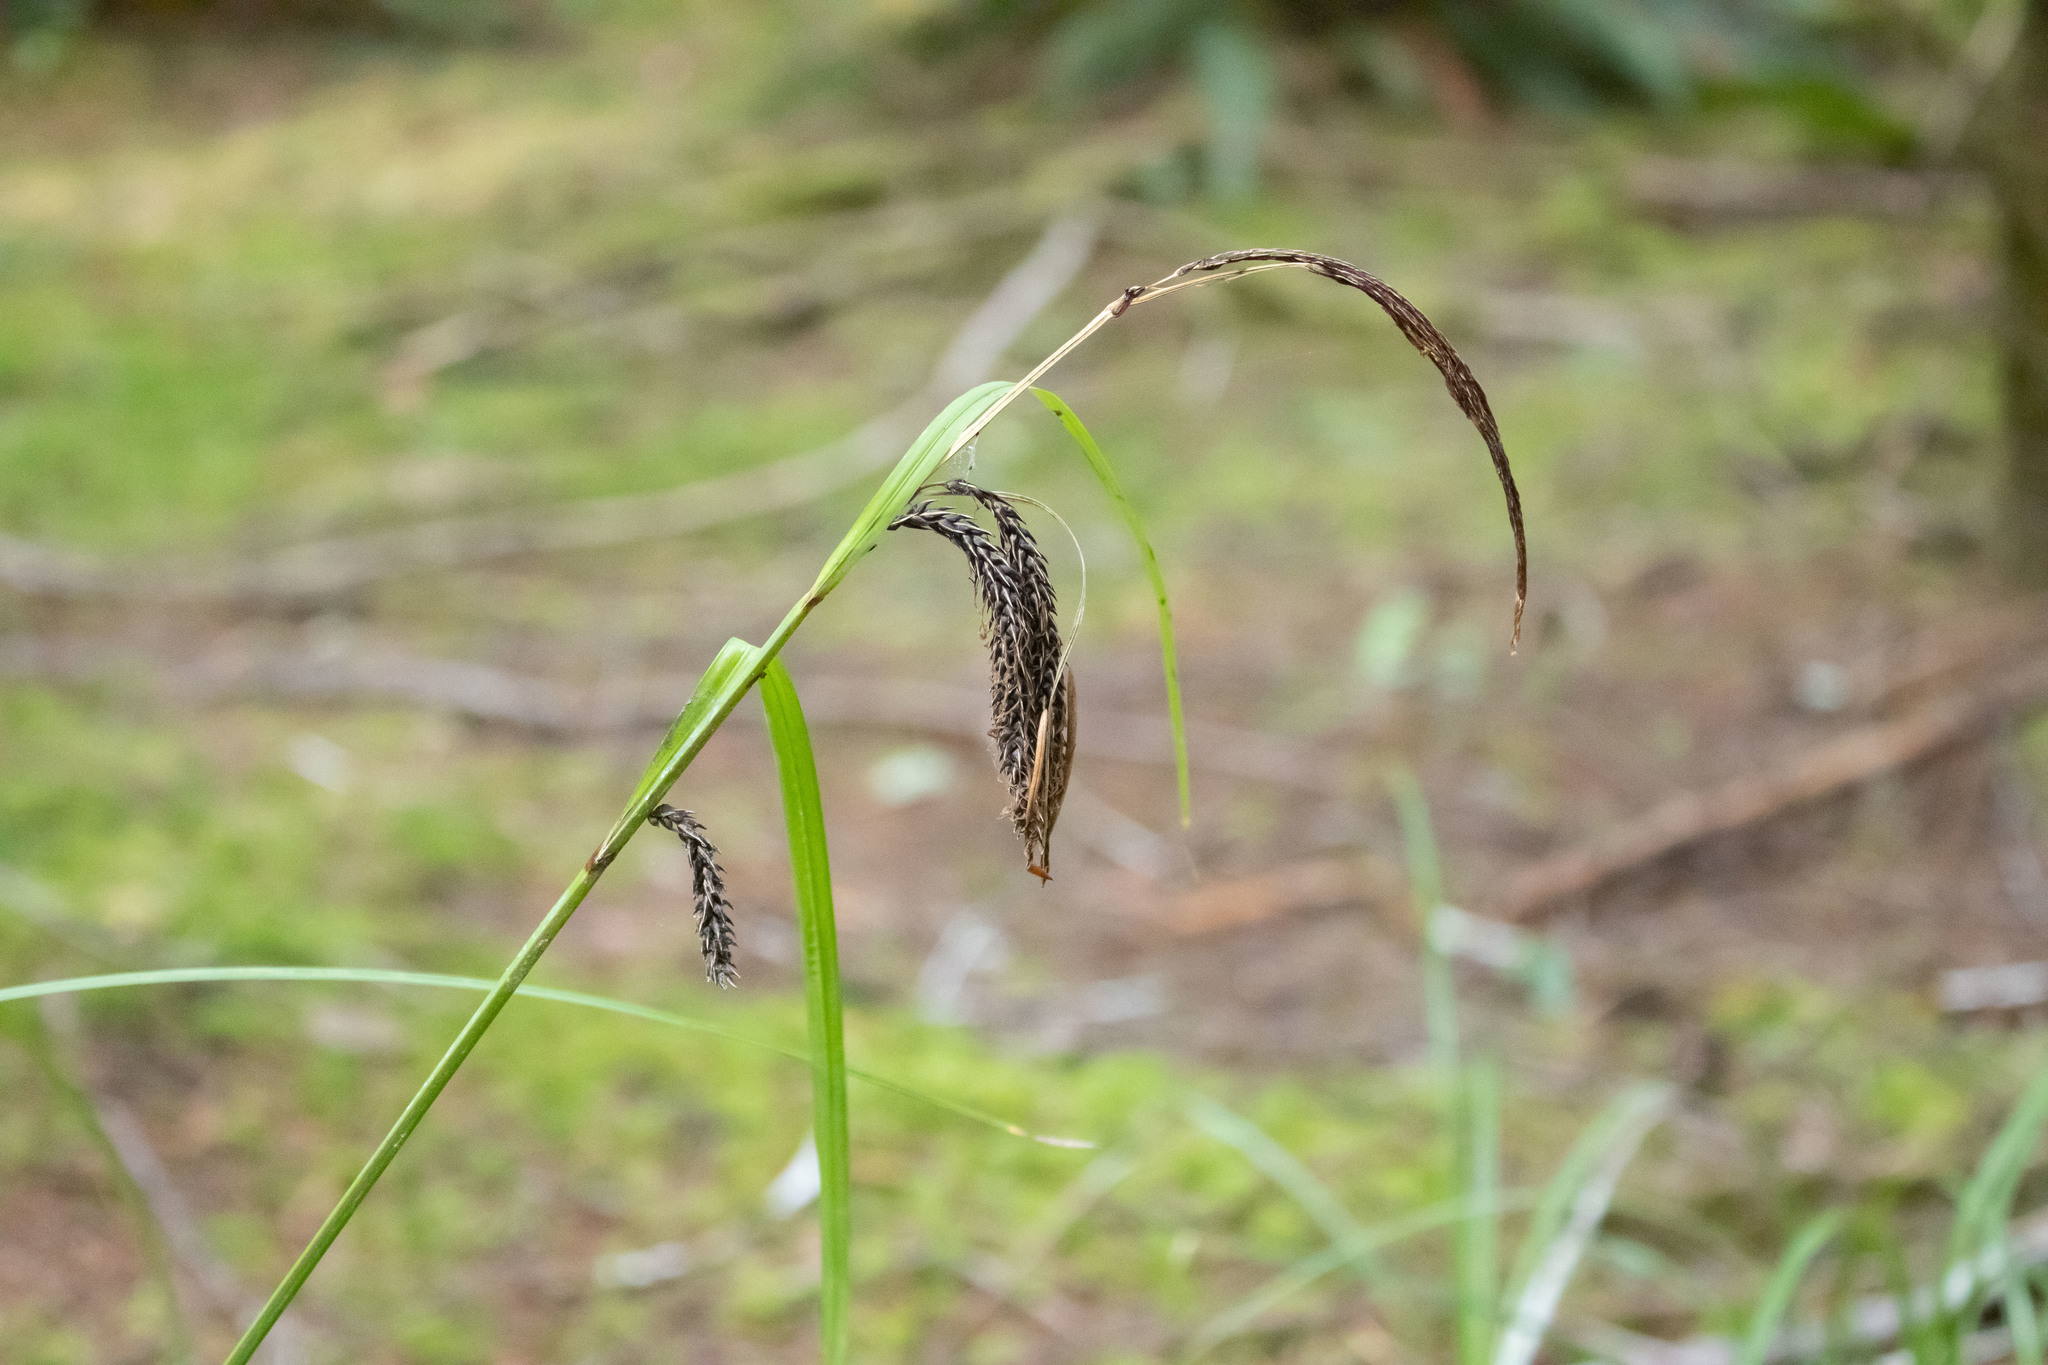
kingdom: Plantae
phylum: Tracheophyta
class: Liliopsida
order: Poales
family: Cyperaceae
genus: Carex
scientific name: Carex obnupta
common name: Slough sedge
